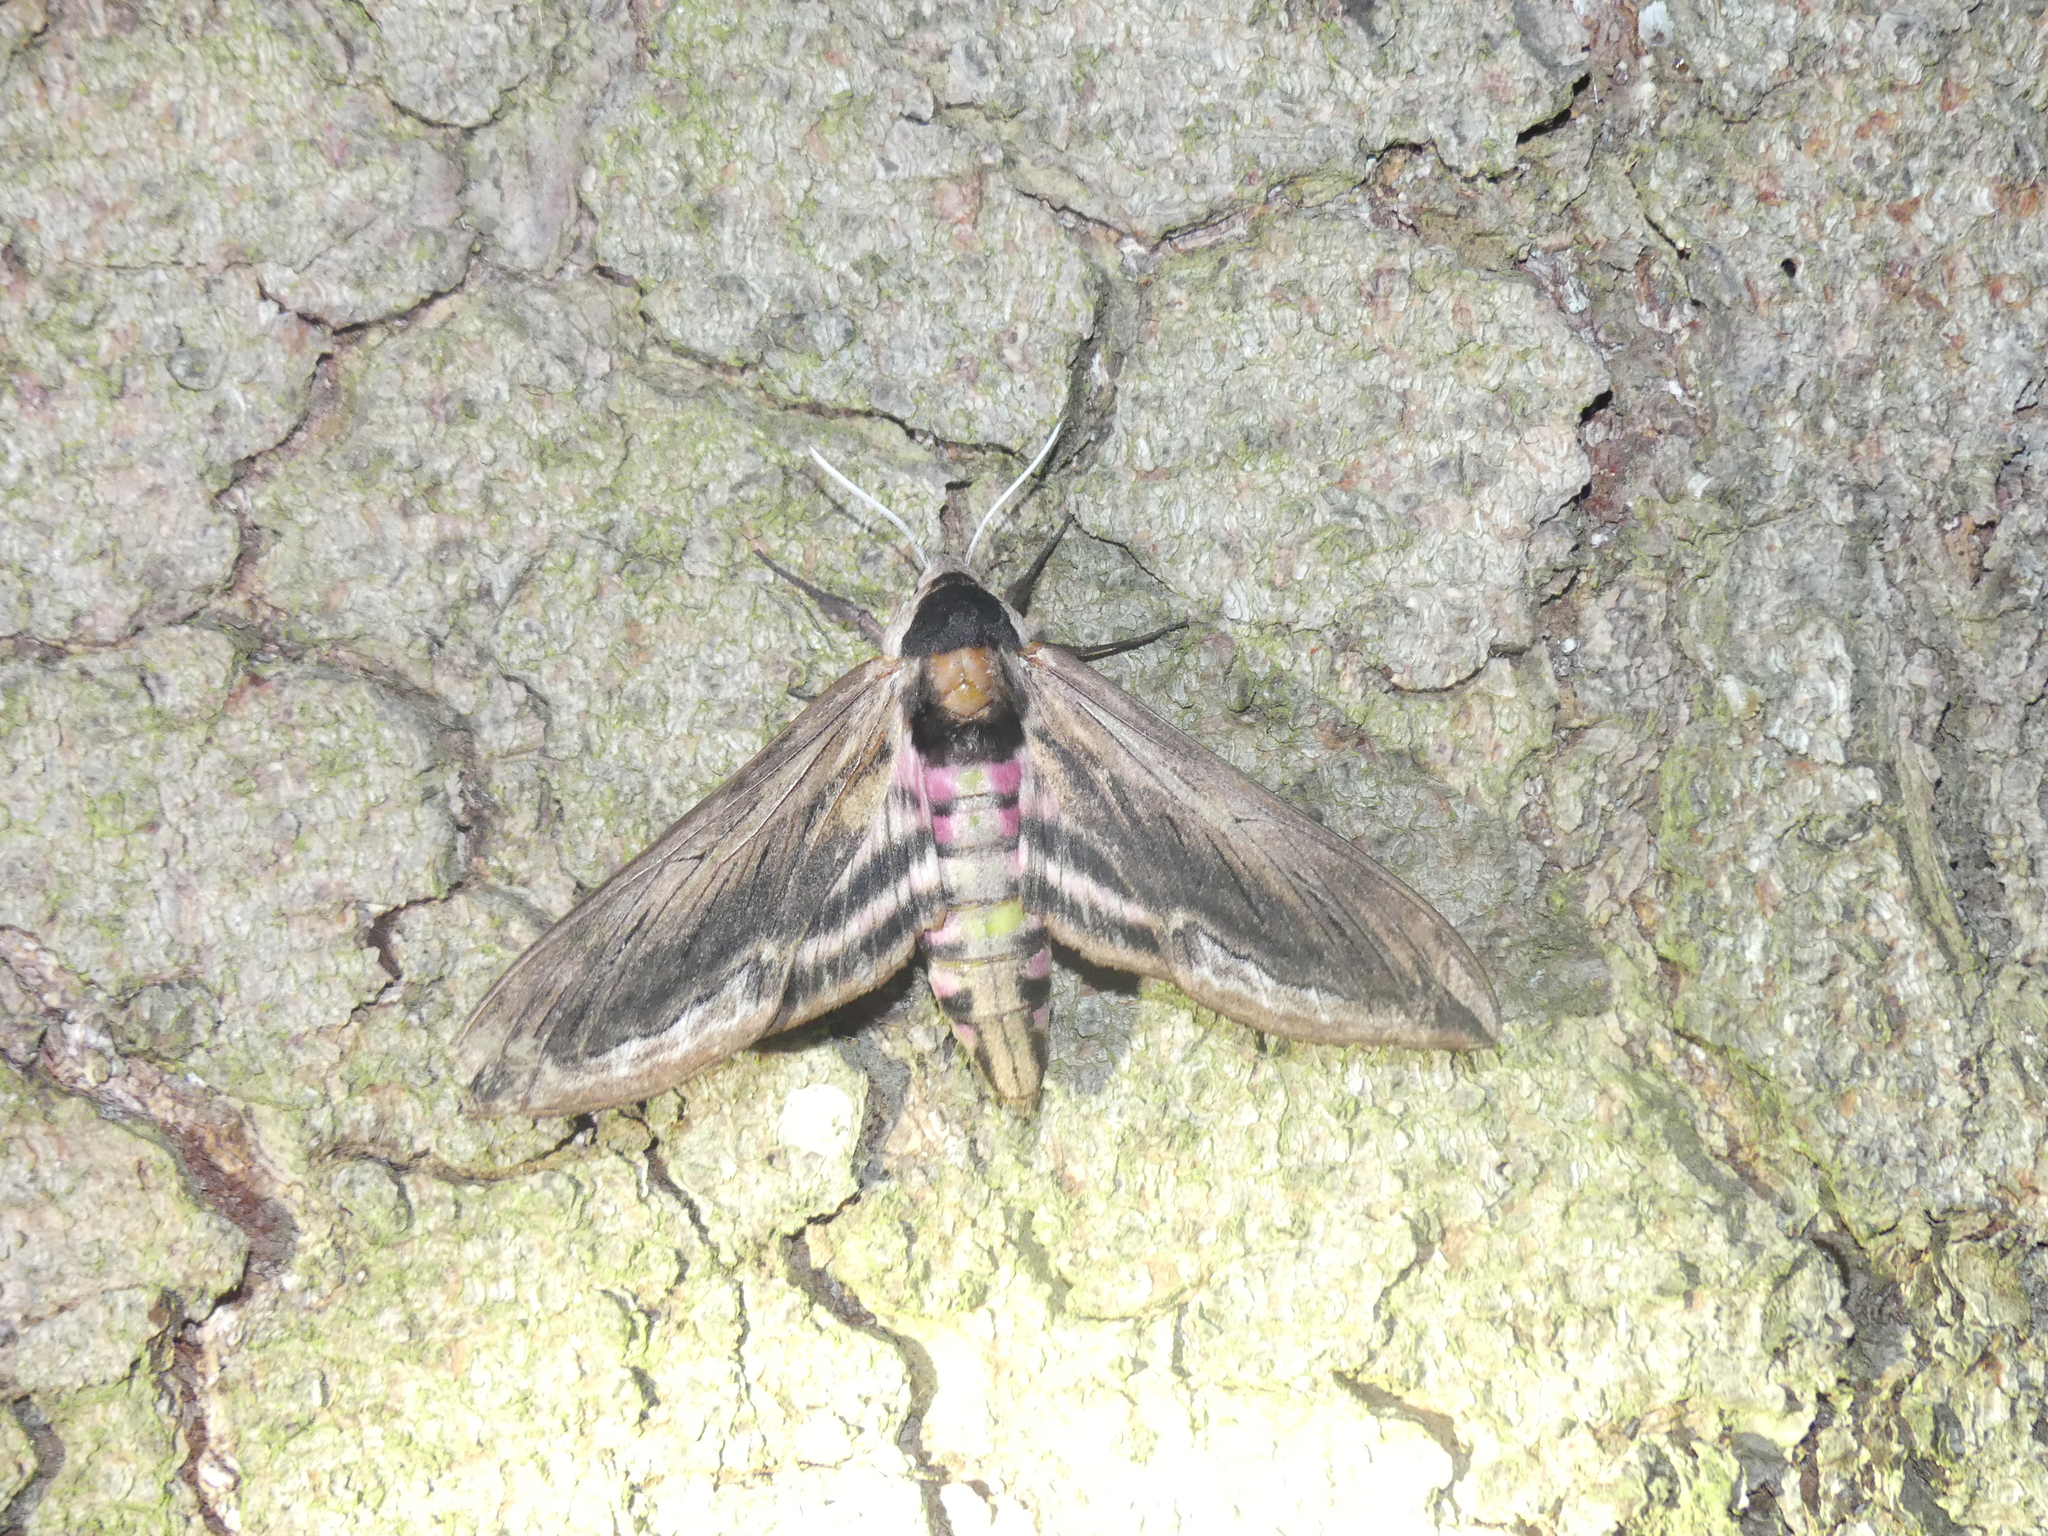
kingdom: Animalia
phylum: Arthropoda
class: Insecta
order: Lepidoptera
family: Sphingidae
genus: Sphinx
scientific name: Sphinx ligustri
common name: Privet hawk-moth
